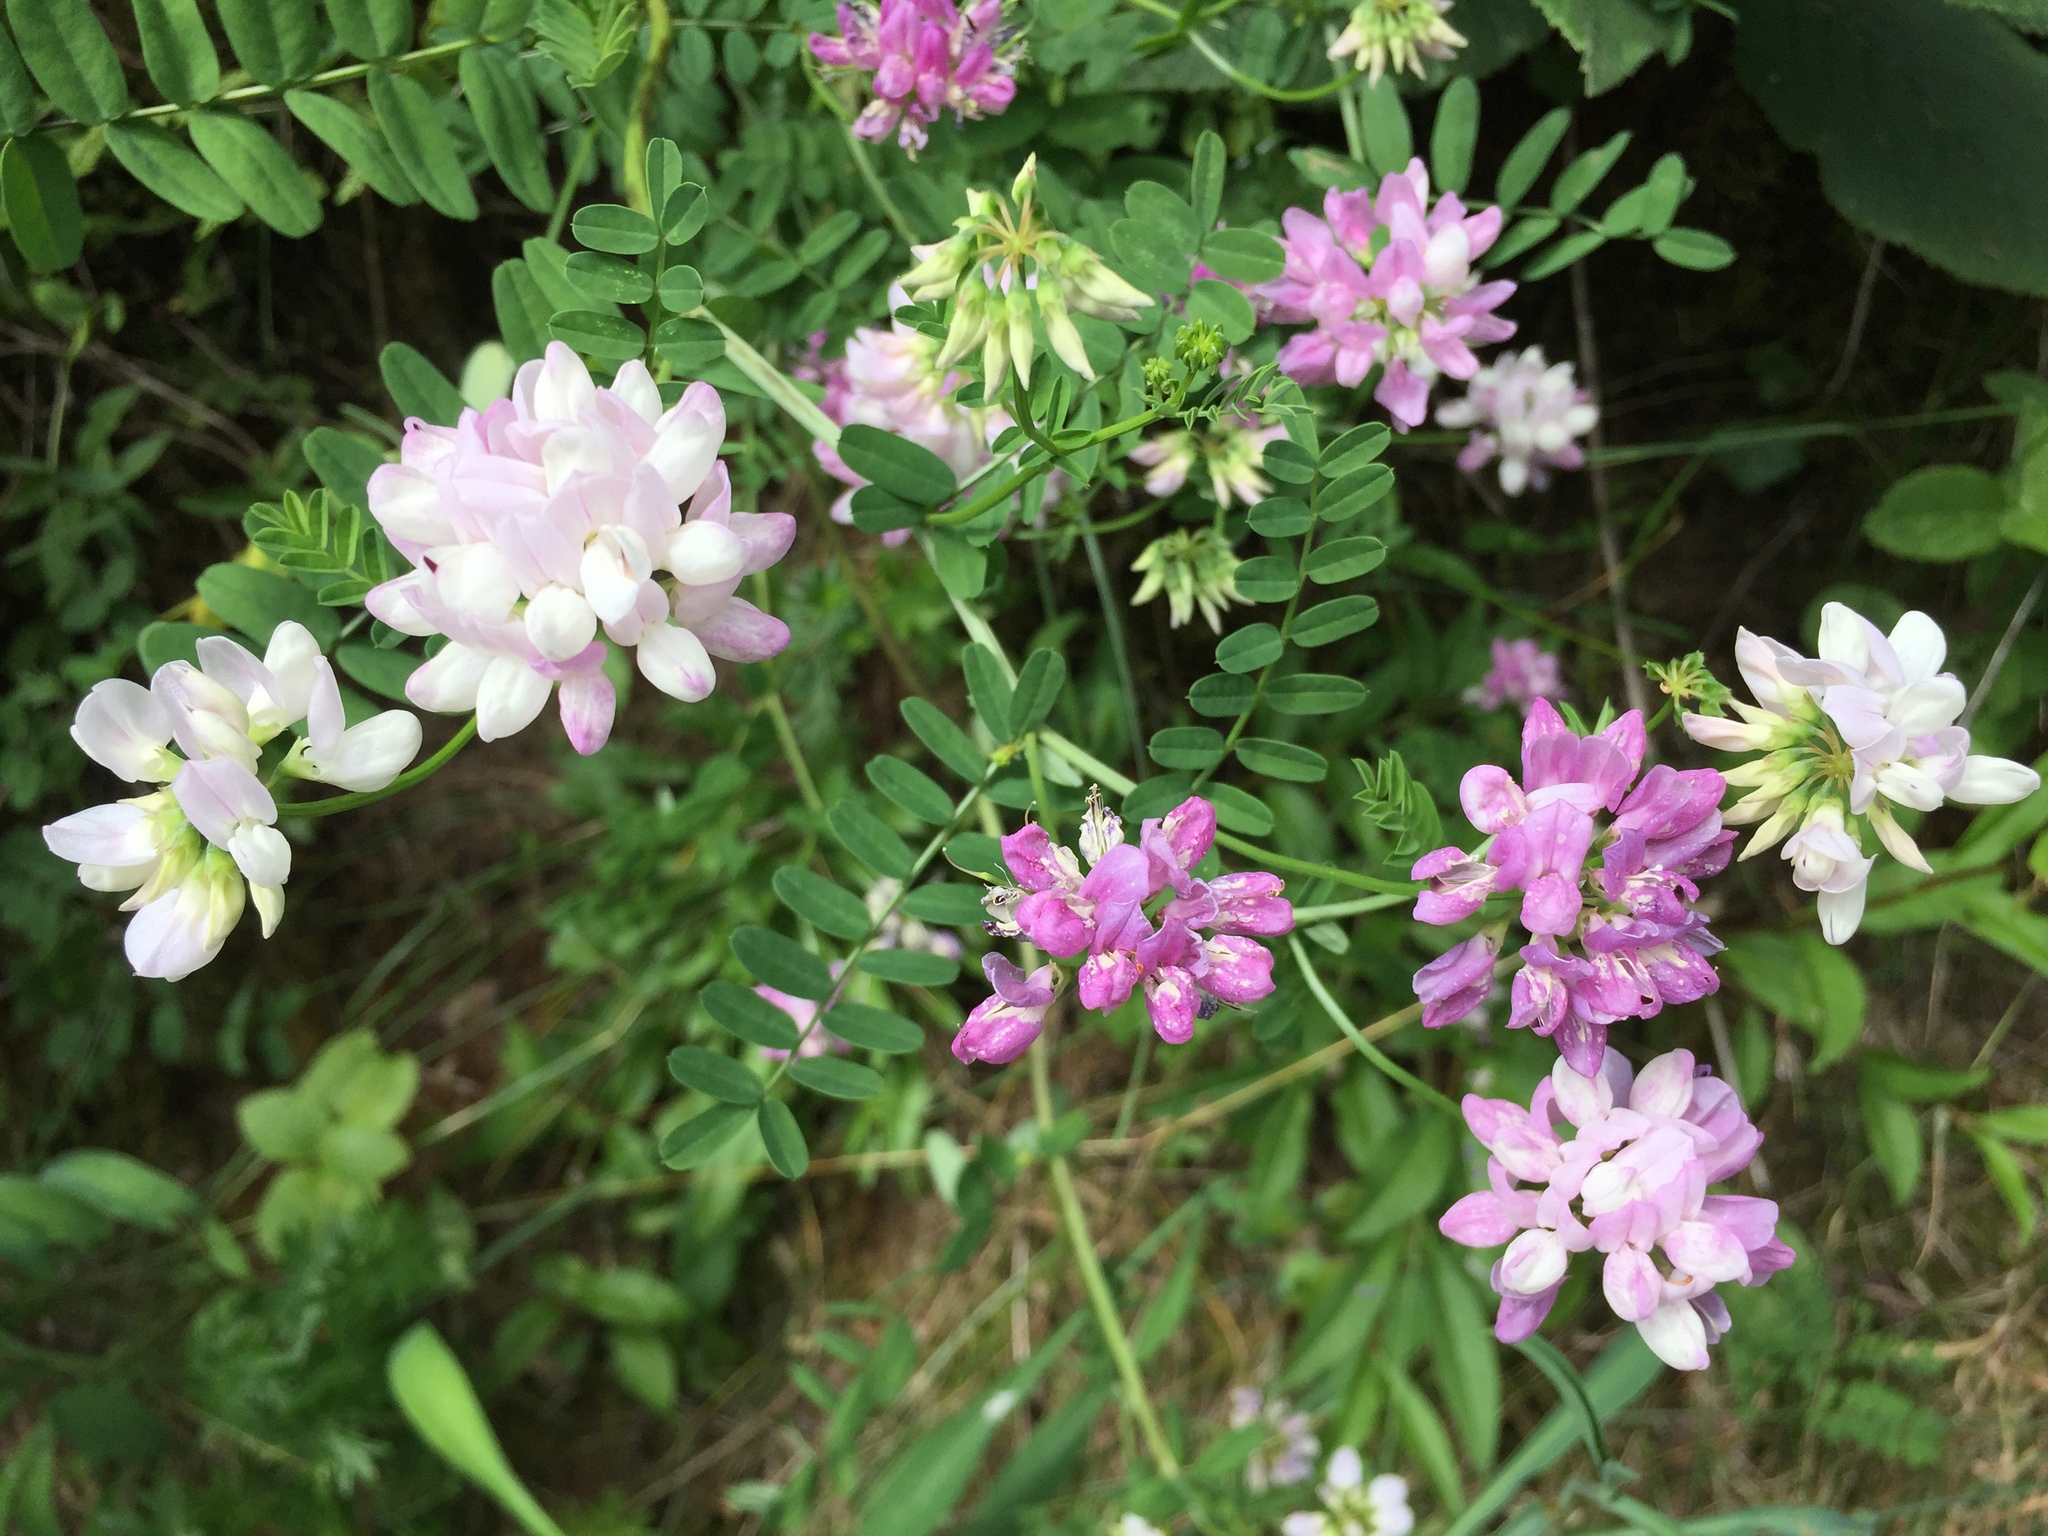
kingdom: Plantae
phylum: Tracheophyta
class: Magnoliopsida
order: Fabales
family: Fabaceae
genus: Coronilla
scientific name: Coronilla varia
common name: Crownvetch
